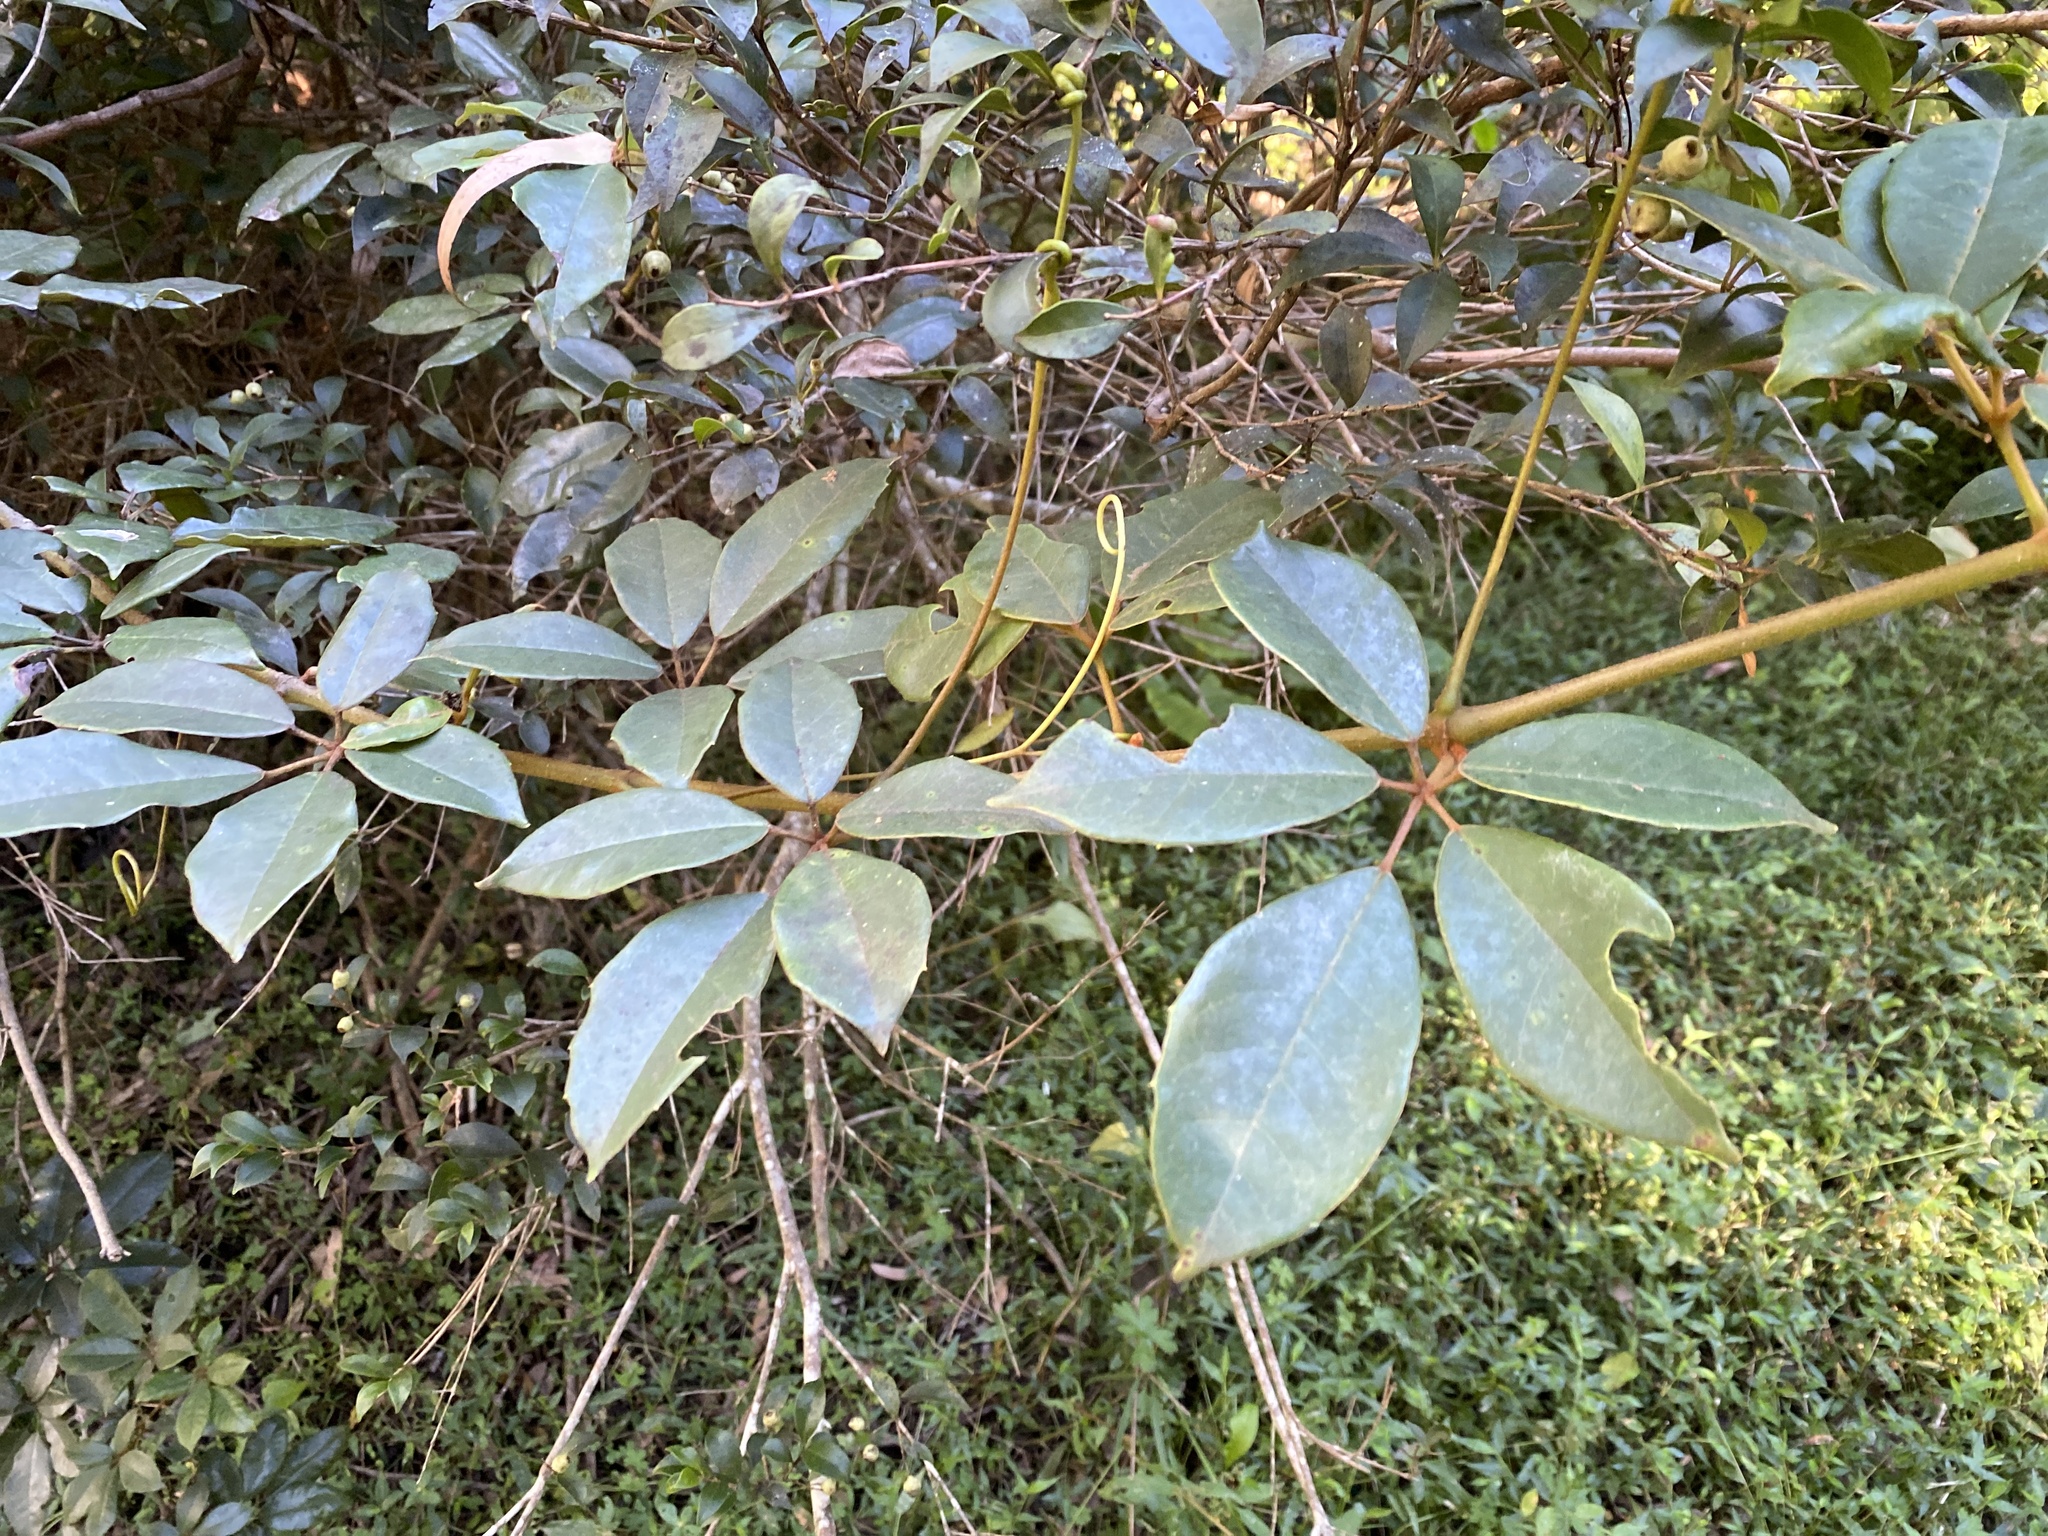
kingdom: Plantae
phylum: Tracheophyta
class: Magnoliopsida
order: Vitales
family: Vitaceae
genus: Nothocissus
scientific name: Nothocissus hypoglauca
